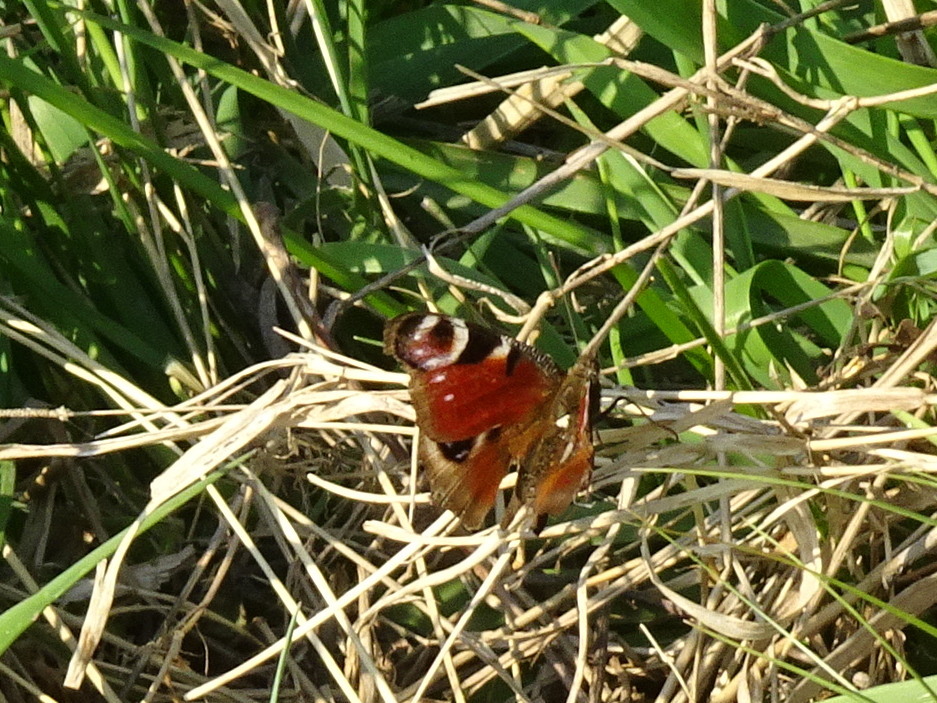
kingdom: Animalia
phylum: Arthropoda
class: Insecta
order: Lepidoptera
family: Nymphalidae
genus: Aglais
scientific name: Aglais io
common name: Peacock
